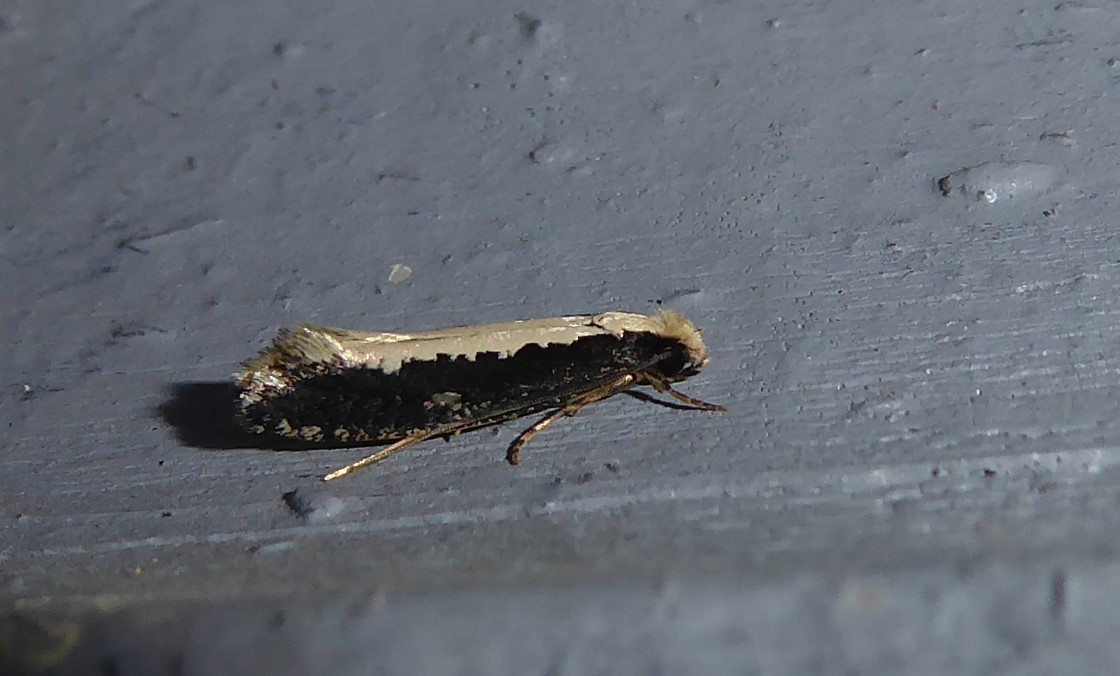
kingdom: Animalia
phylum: Arthropoda
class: Insecta
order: Lepidoptera
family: Tineidae
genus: Monopis
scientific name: Monopis ethelella
